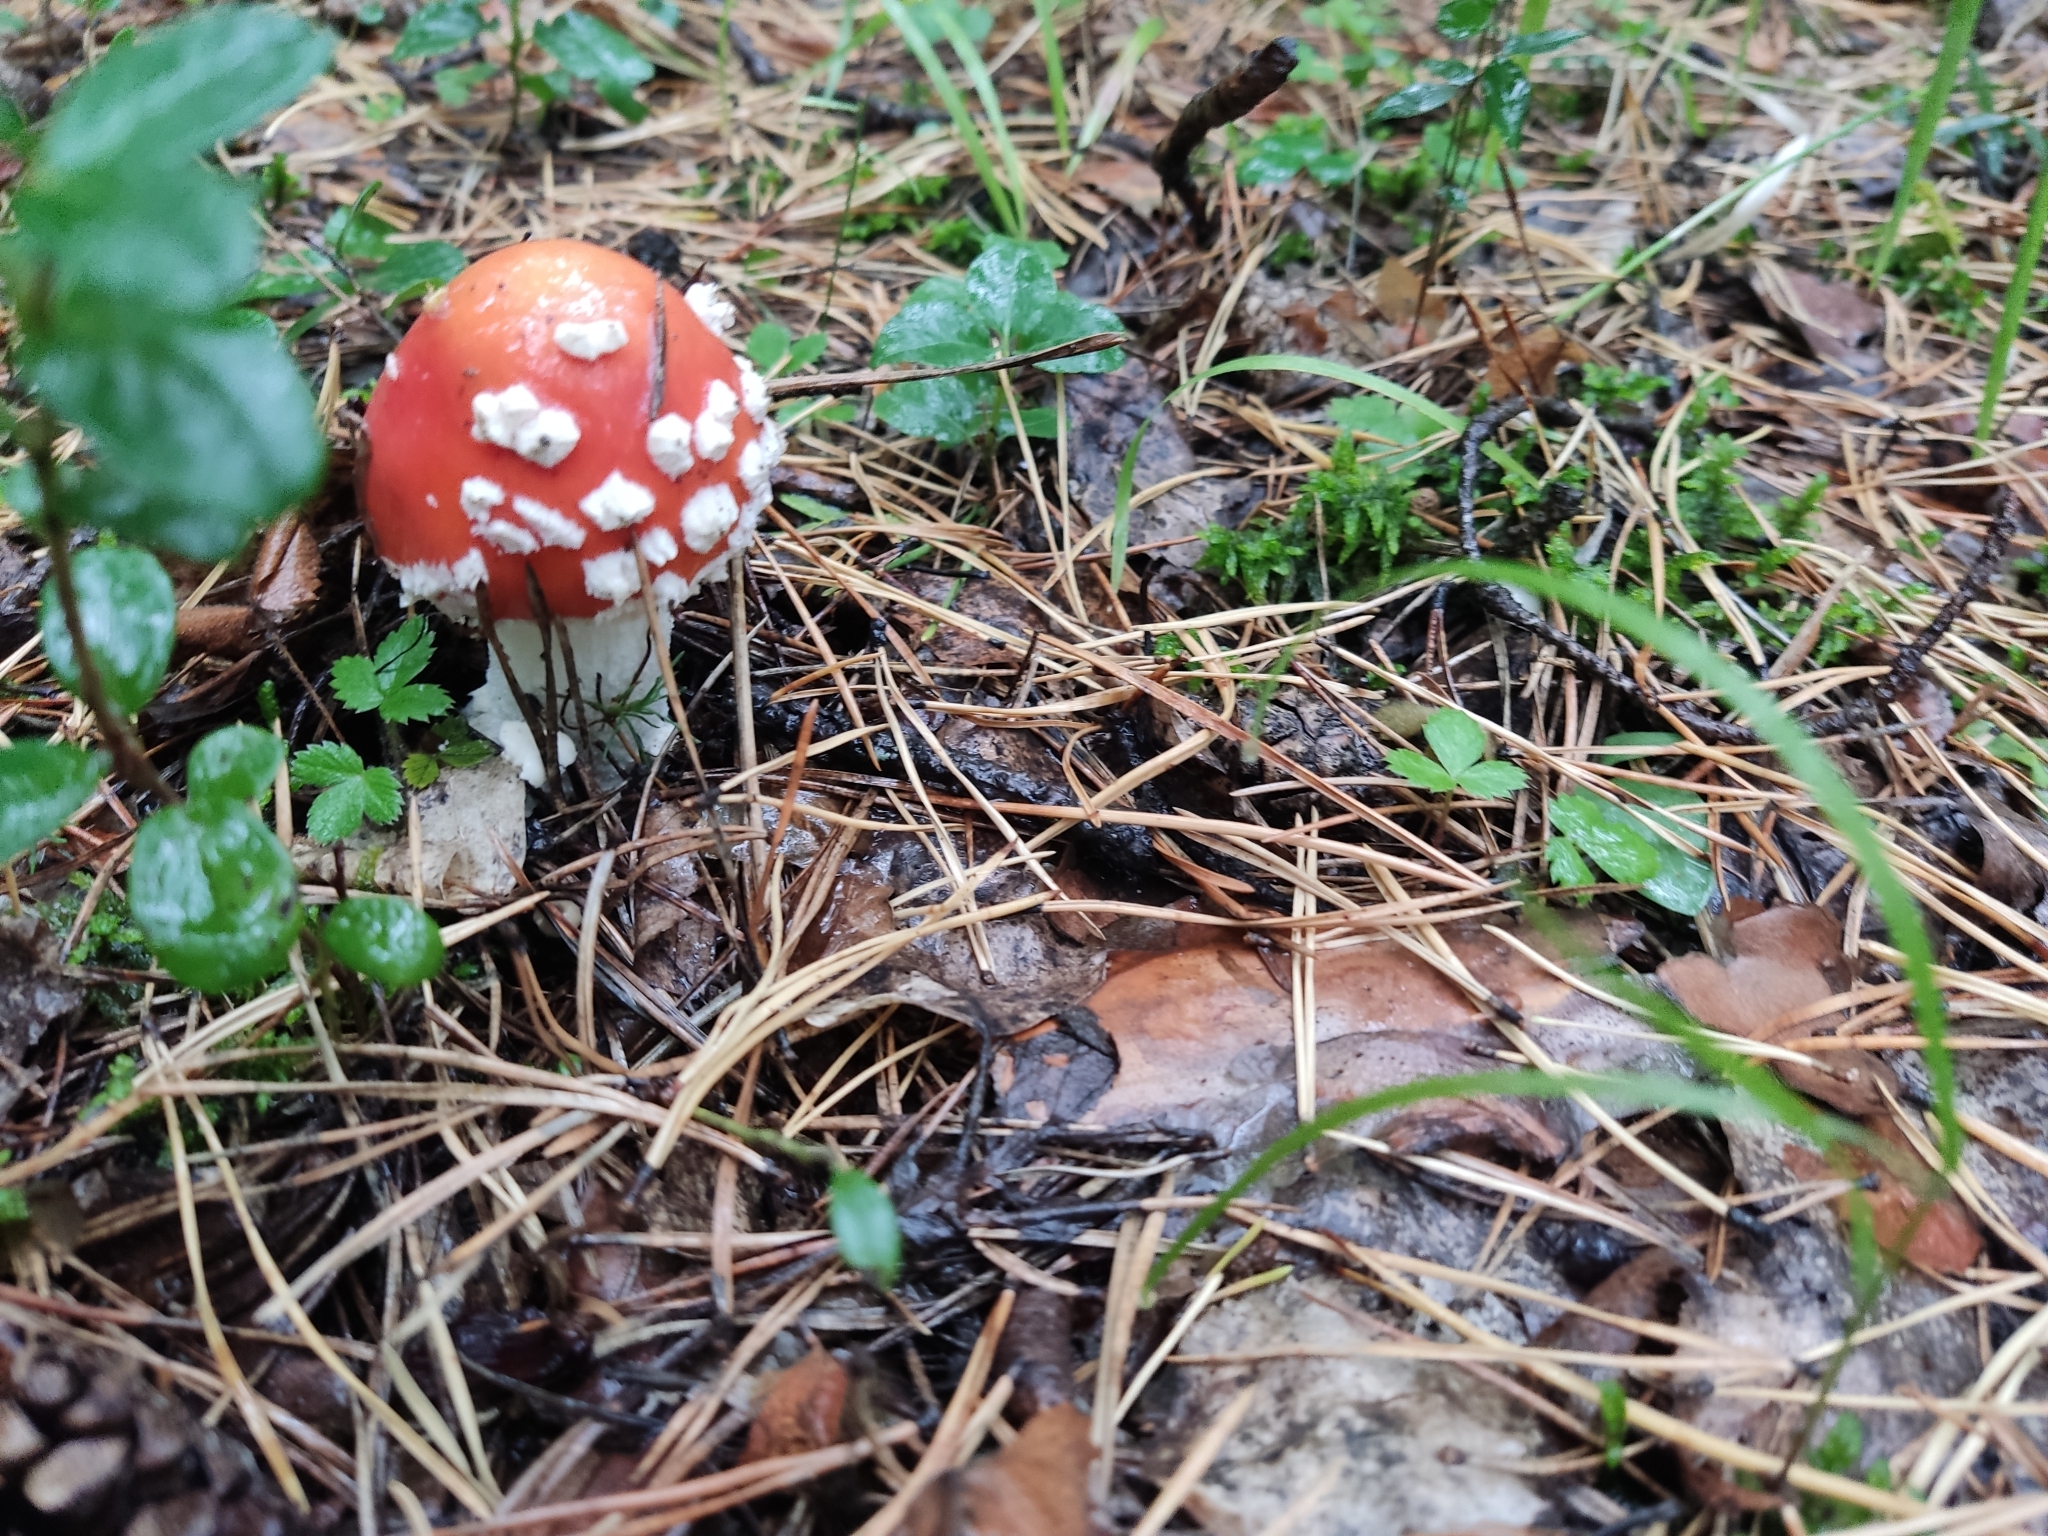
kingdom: Fungi
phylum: Basidiomycota
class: Agaricomycetes
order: Agaricales
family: Amanitaceae
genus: Amanita
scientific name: Amanita muscaria
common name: Fly agaric
